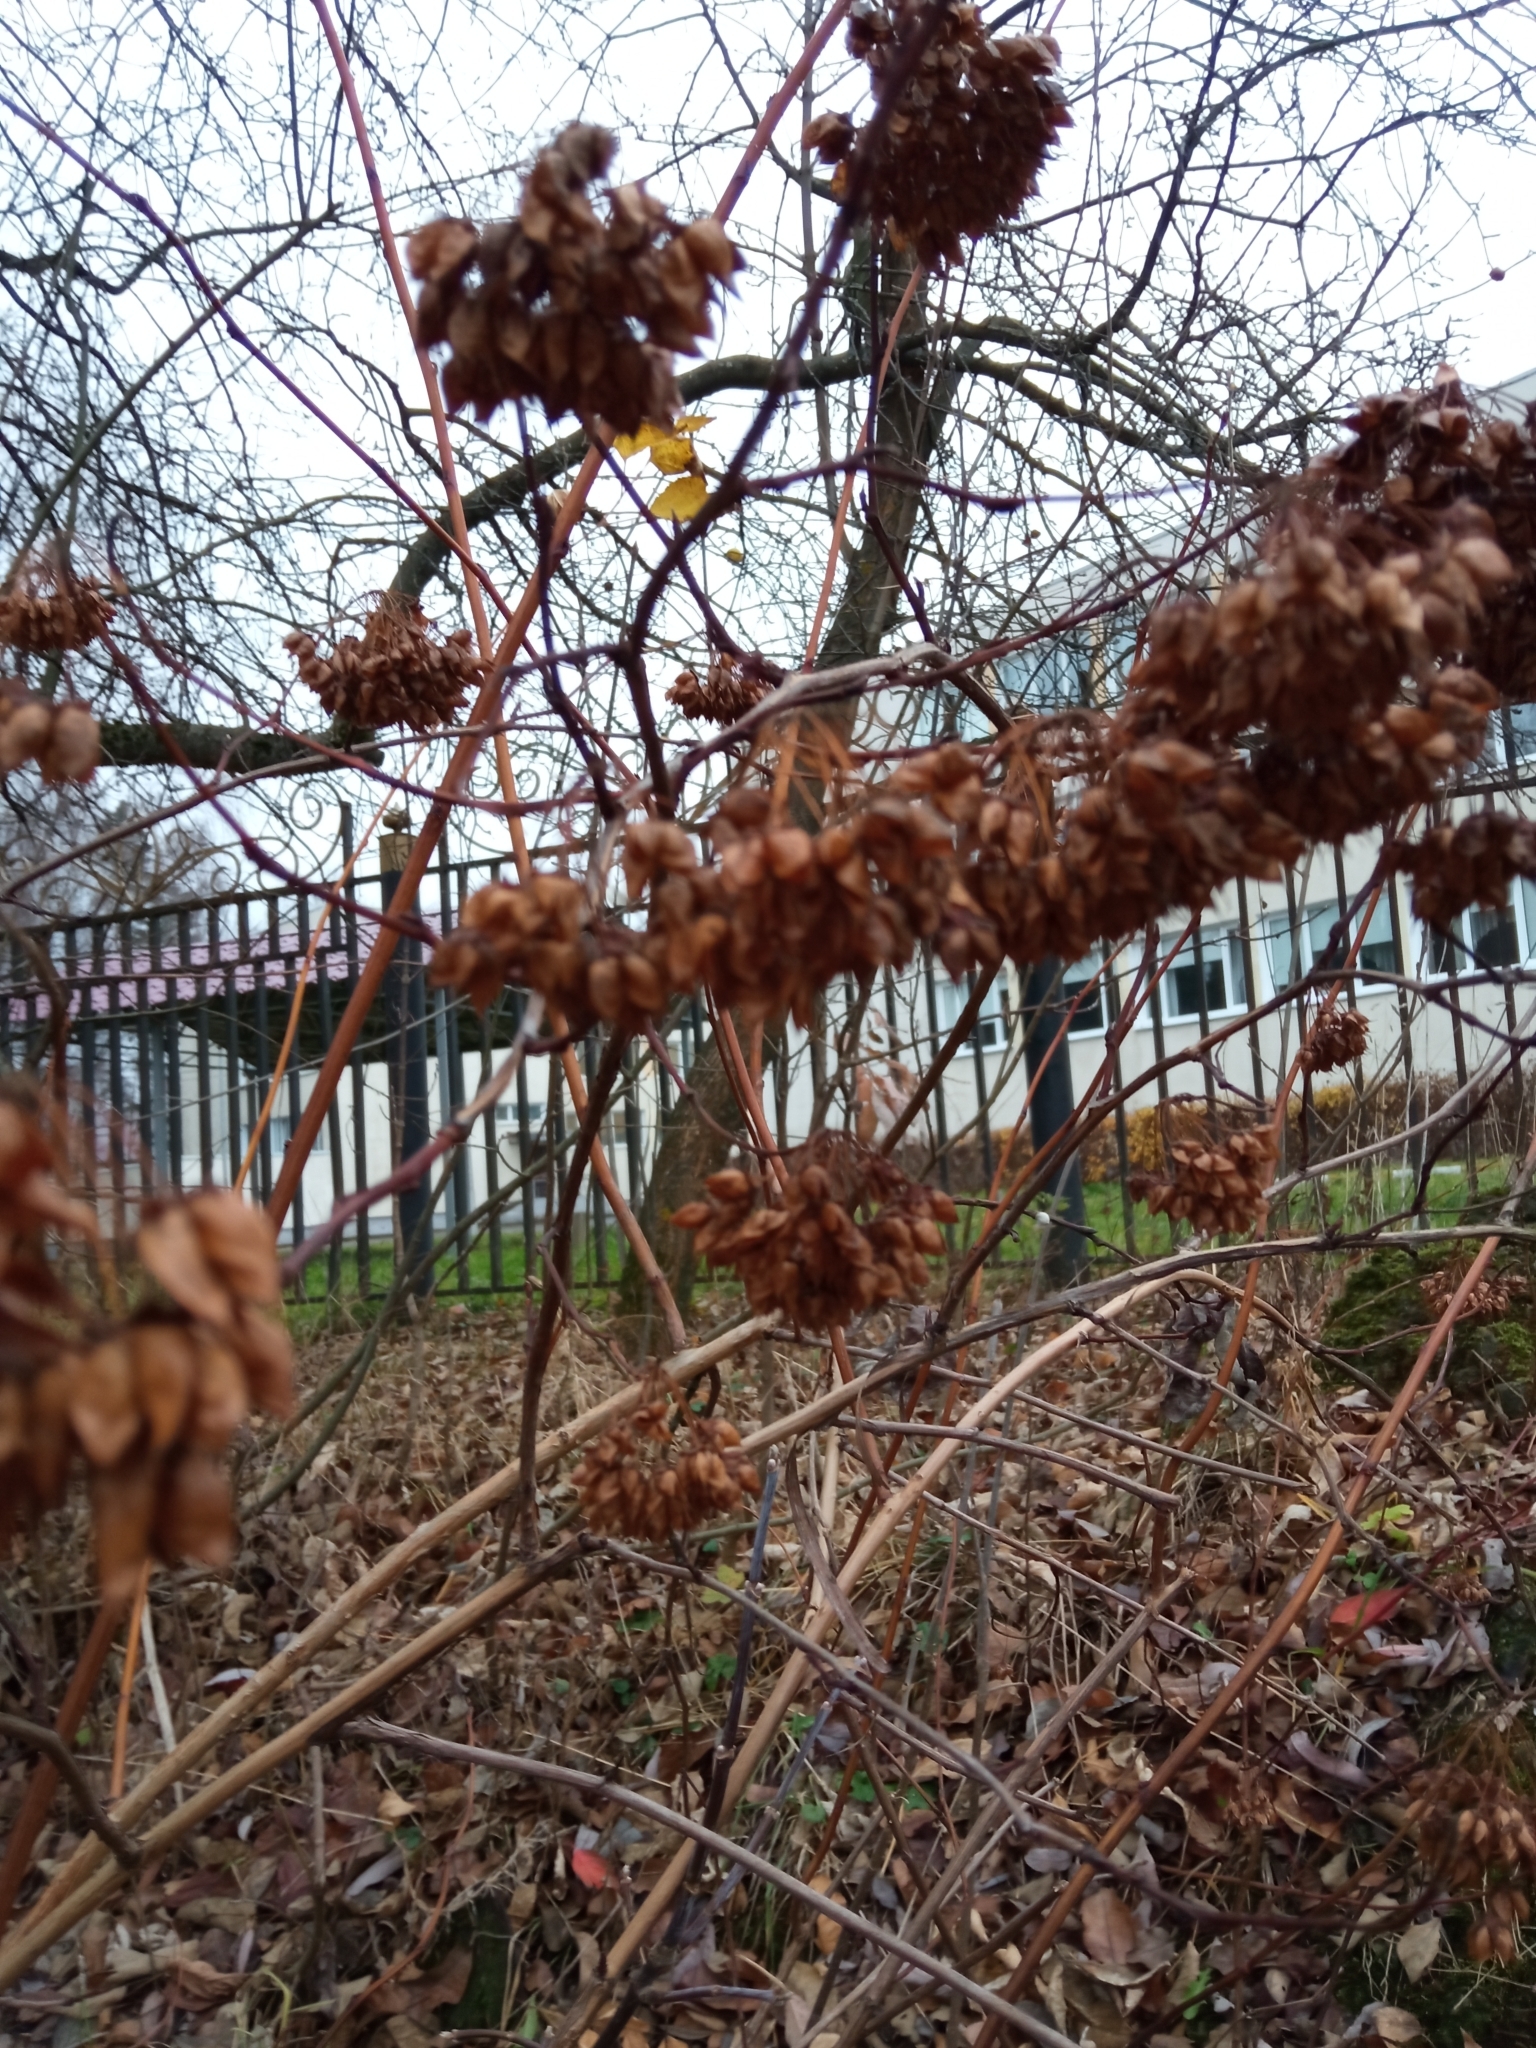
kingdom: Plantae
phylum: Tracheophyta
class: Magnoliopsida
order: Rosales
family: Rosaceae
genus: Physocarpus
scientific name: Physocarpus opulifolius
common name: Ninebark
